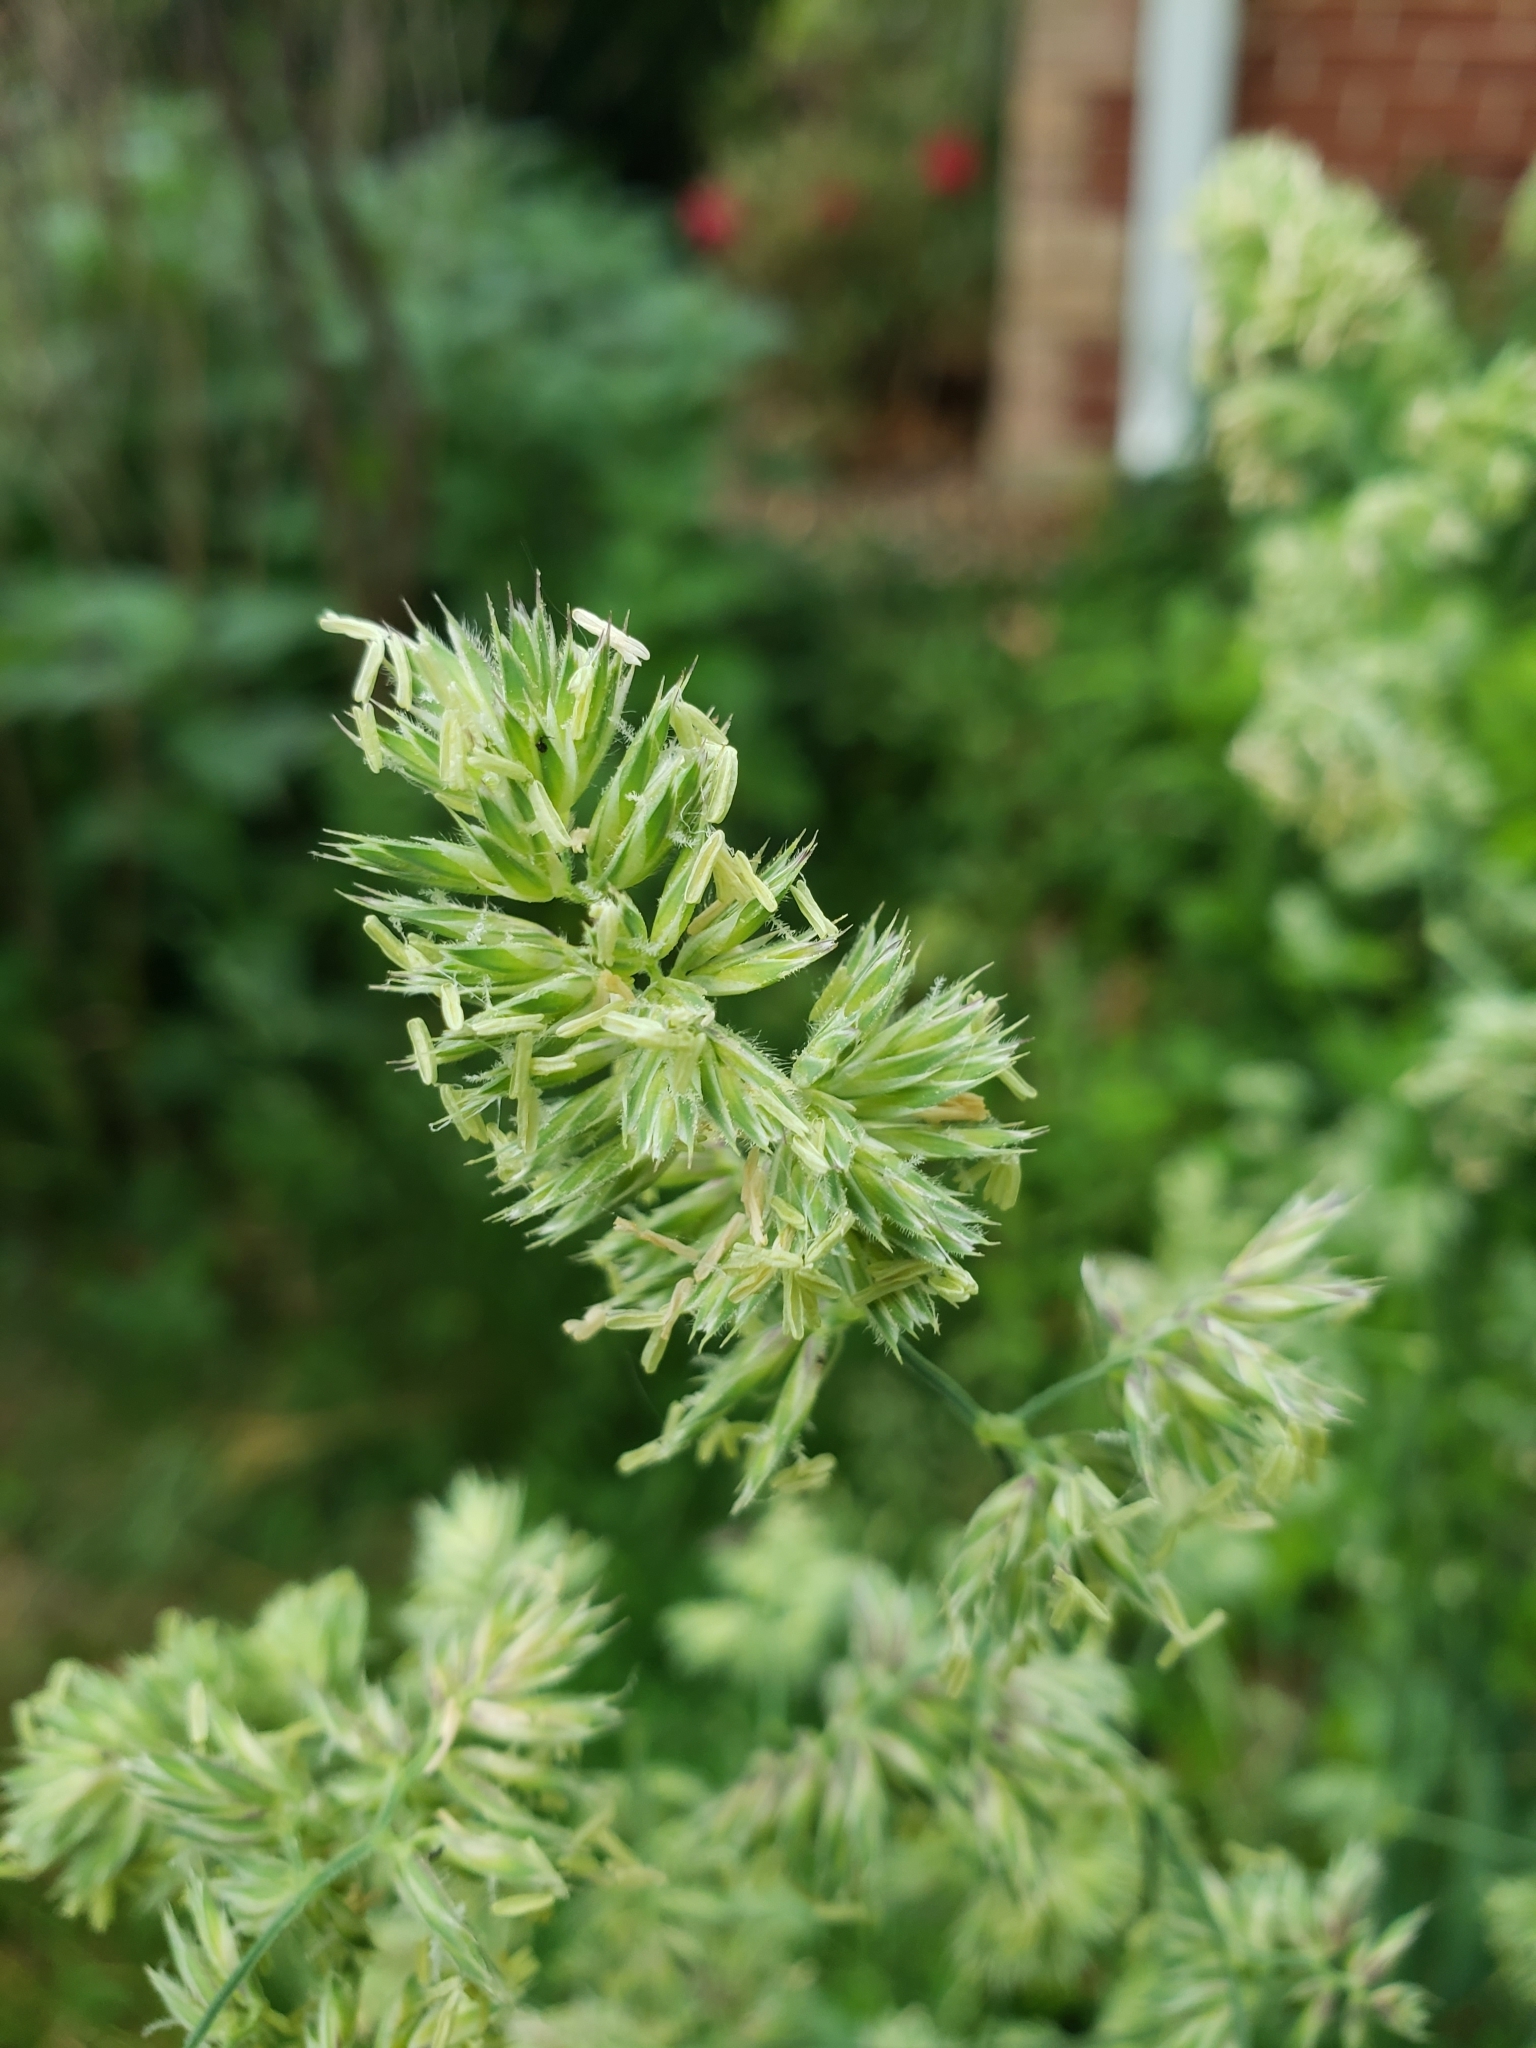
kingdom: Plantae
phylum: Tracheophyta
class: Liliopsida
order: Poales
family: Poaceae
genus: Dactylis
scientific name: Dactylis glomerata
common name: Orchardgrass
